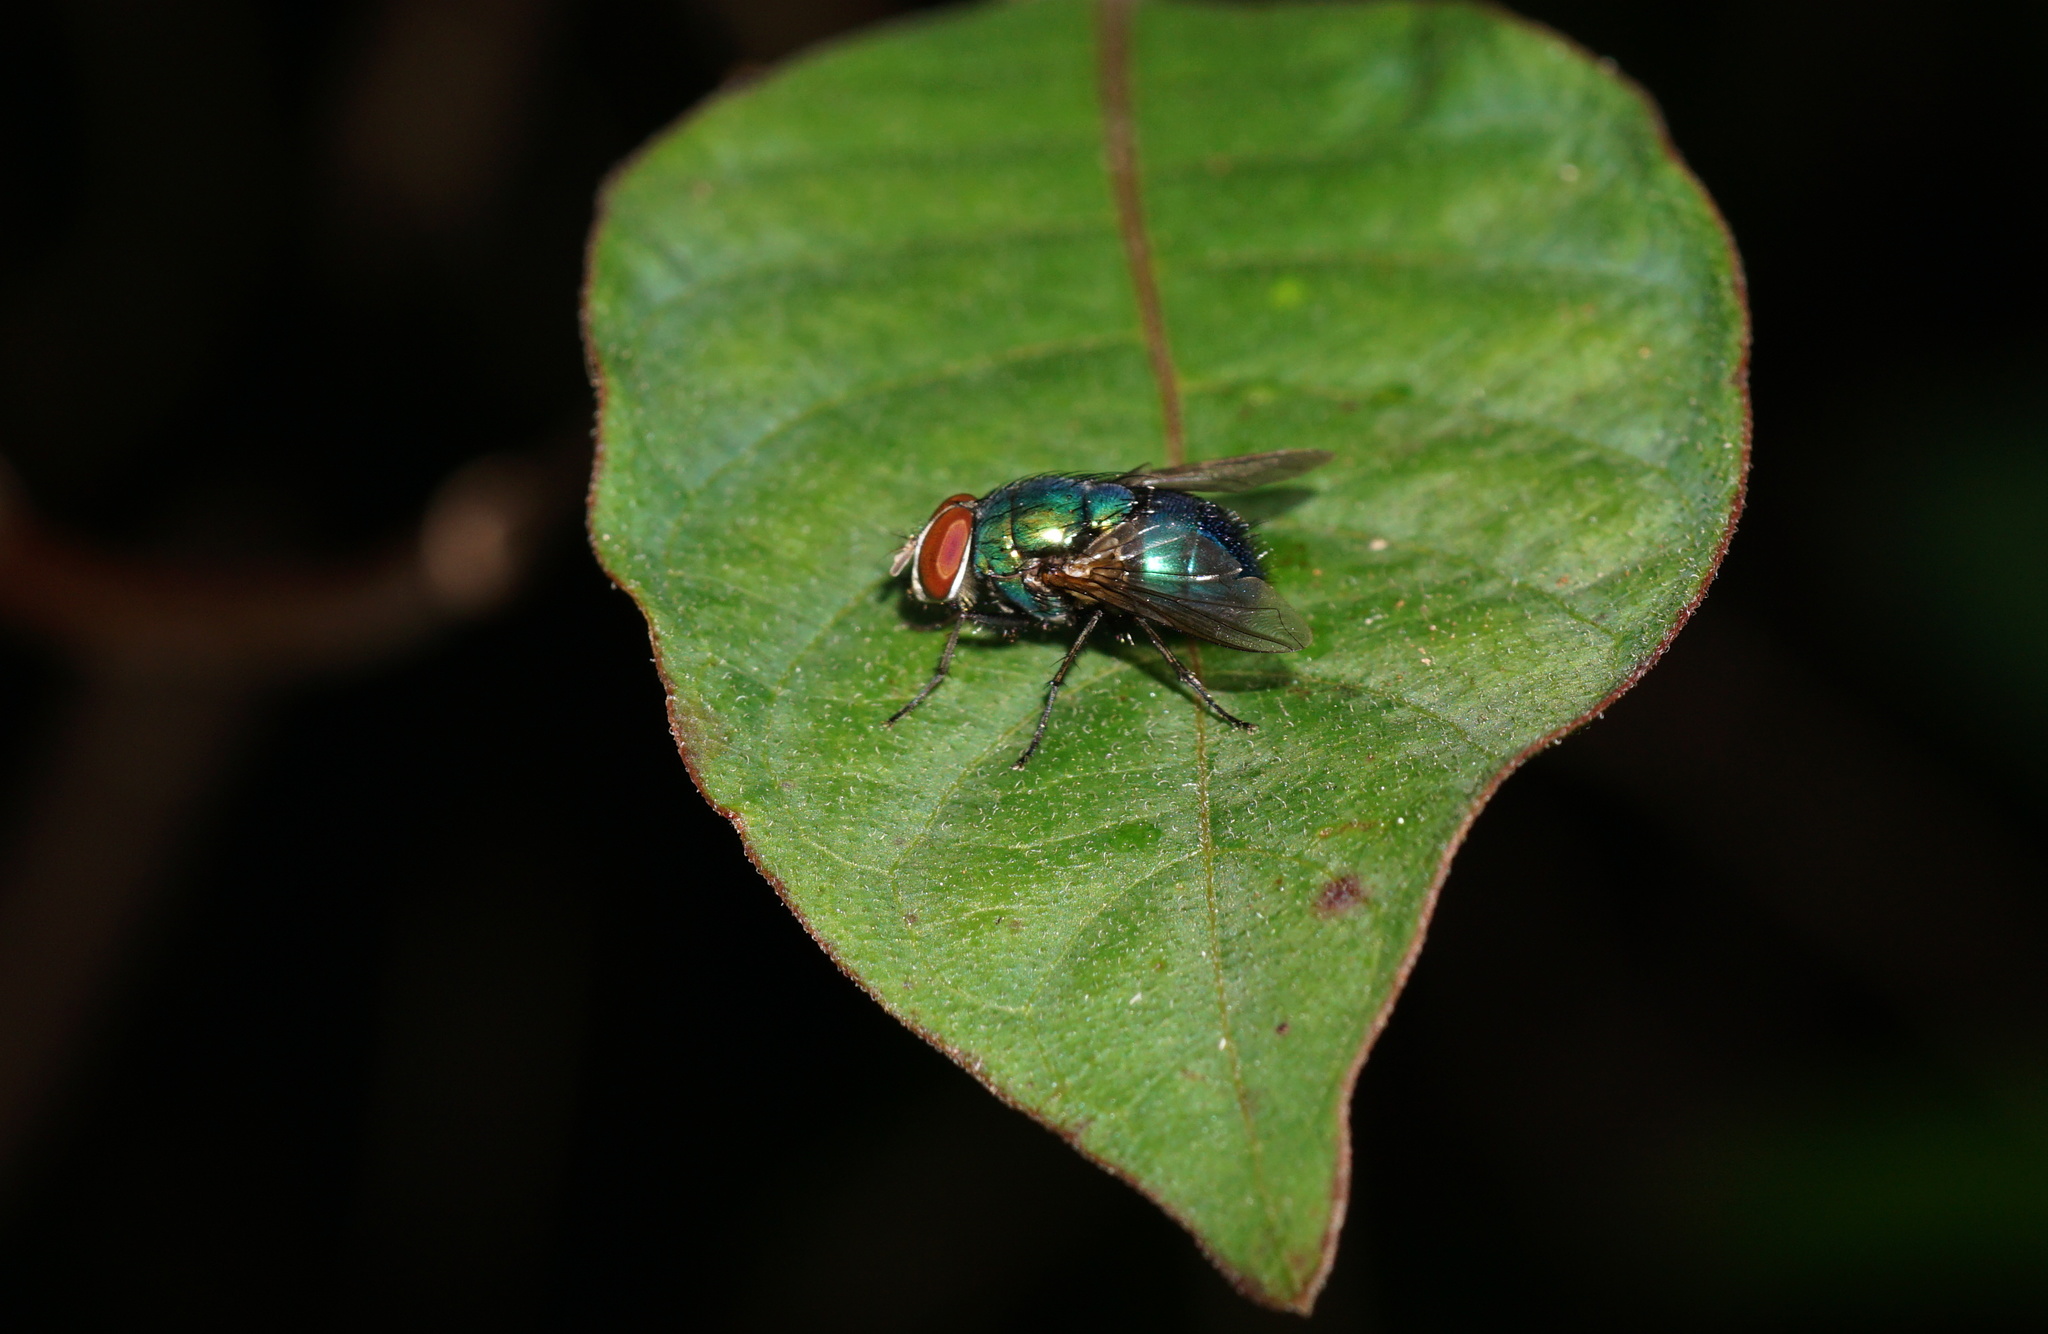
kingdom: Animalia
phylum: Arthropoda
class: Insecta
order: Diptera
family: Calliphoridae
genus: Lucilia
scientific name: Lucilia eximia
